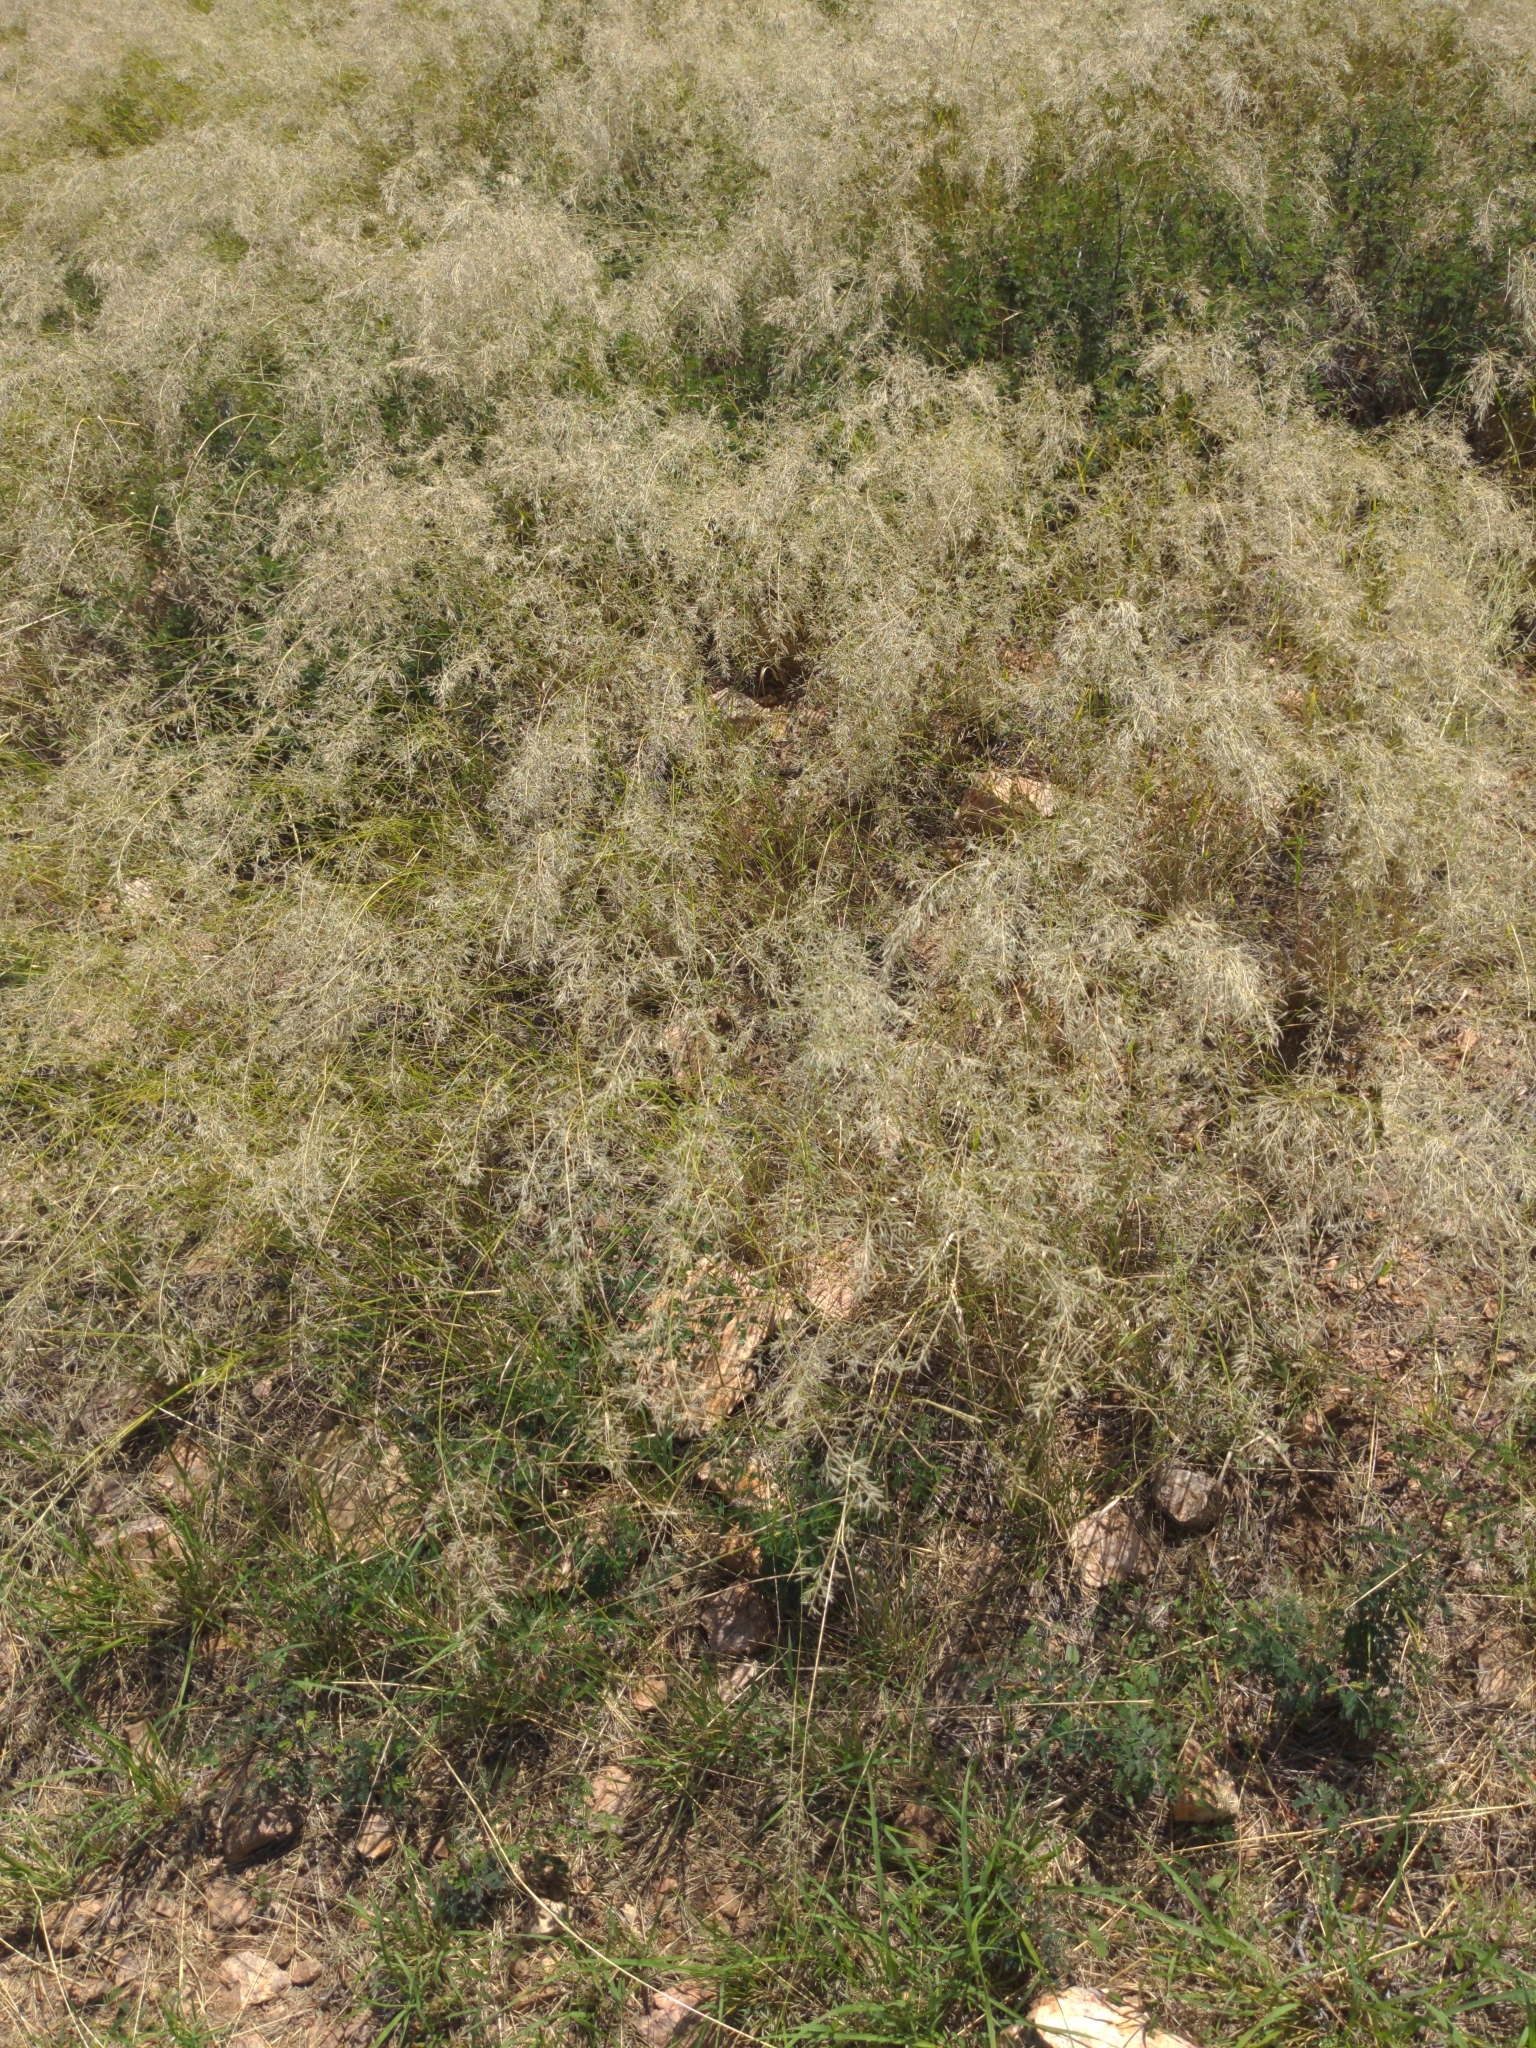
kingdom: Plantae
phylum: Tracheophyta
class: Liliopsida
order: Poales
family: Poaceae
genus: Eragrostis
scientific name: Eragrostis lehmanniana
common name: Lehmann lovegrass
